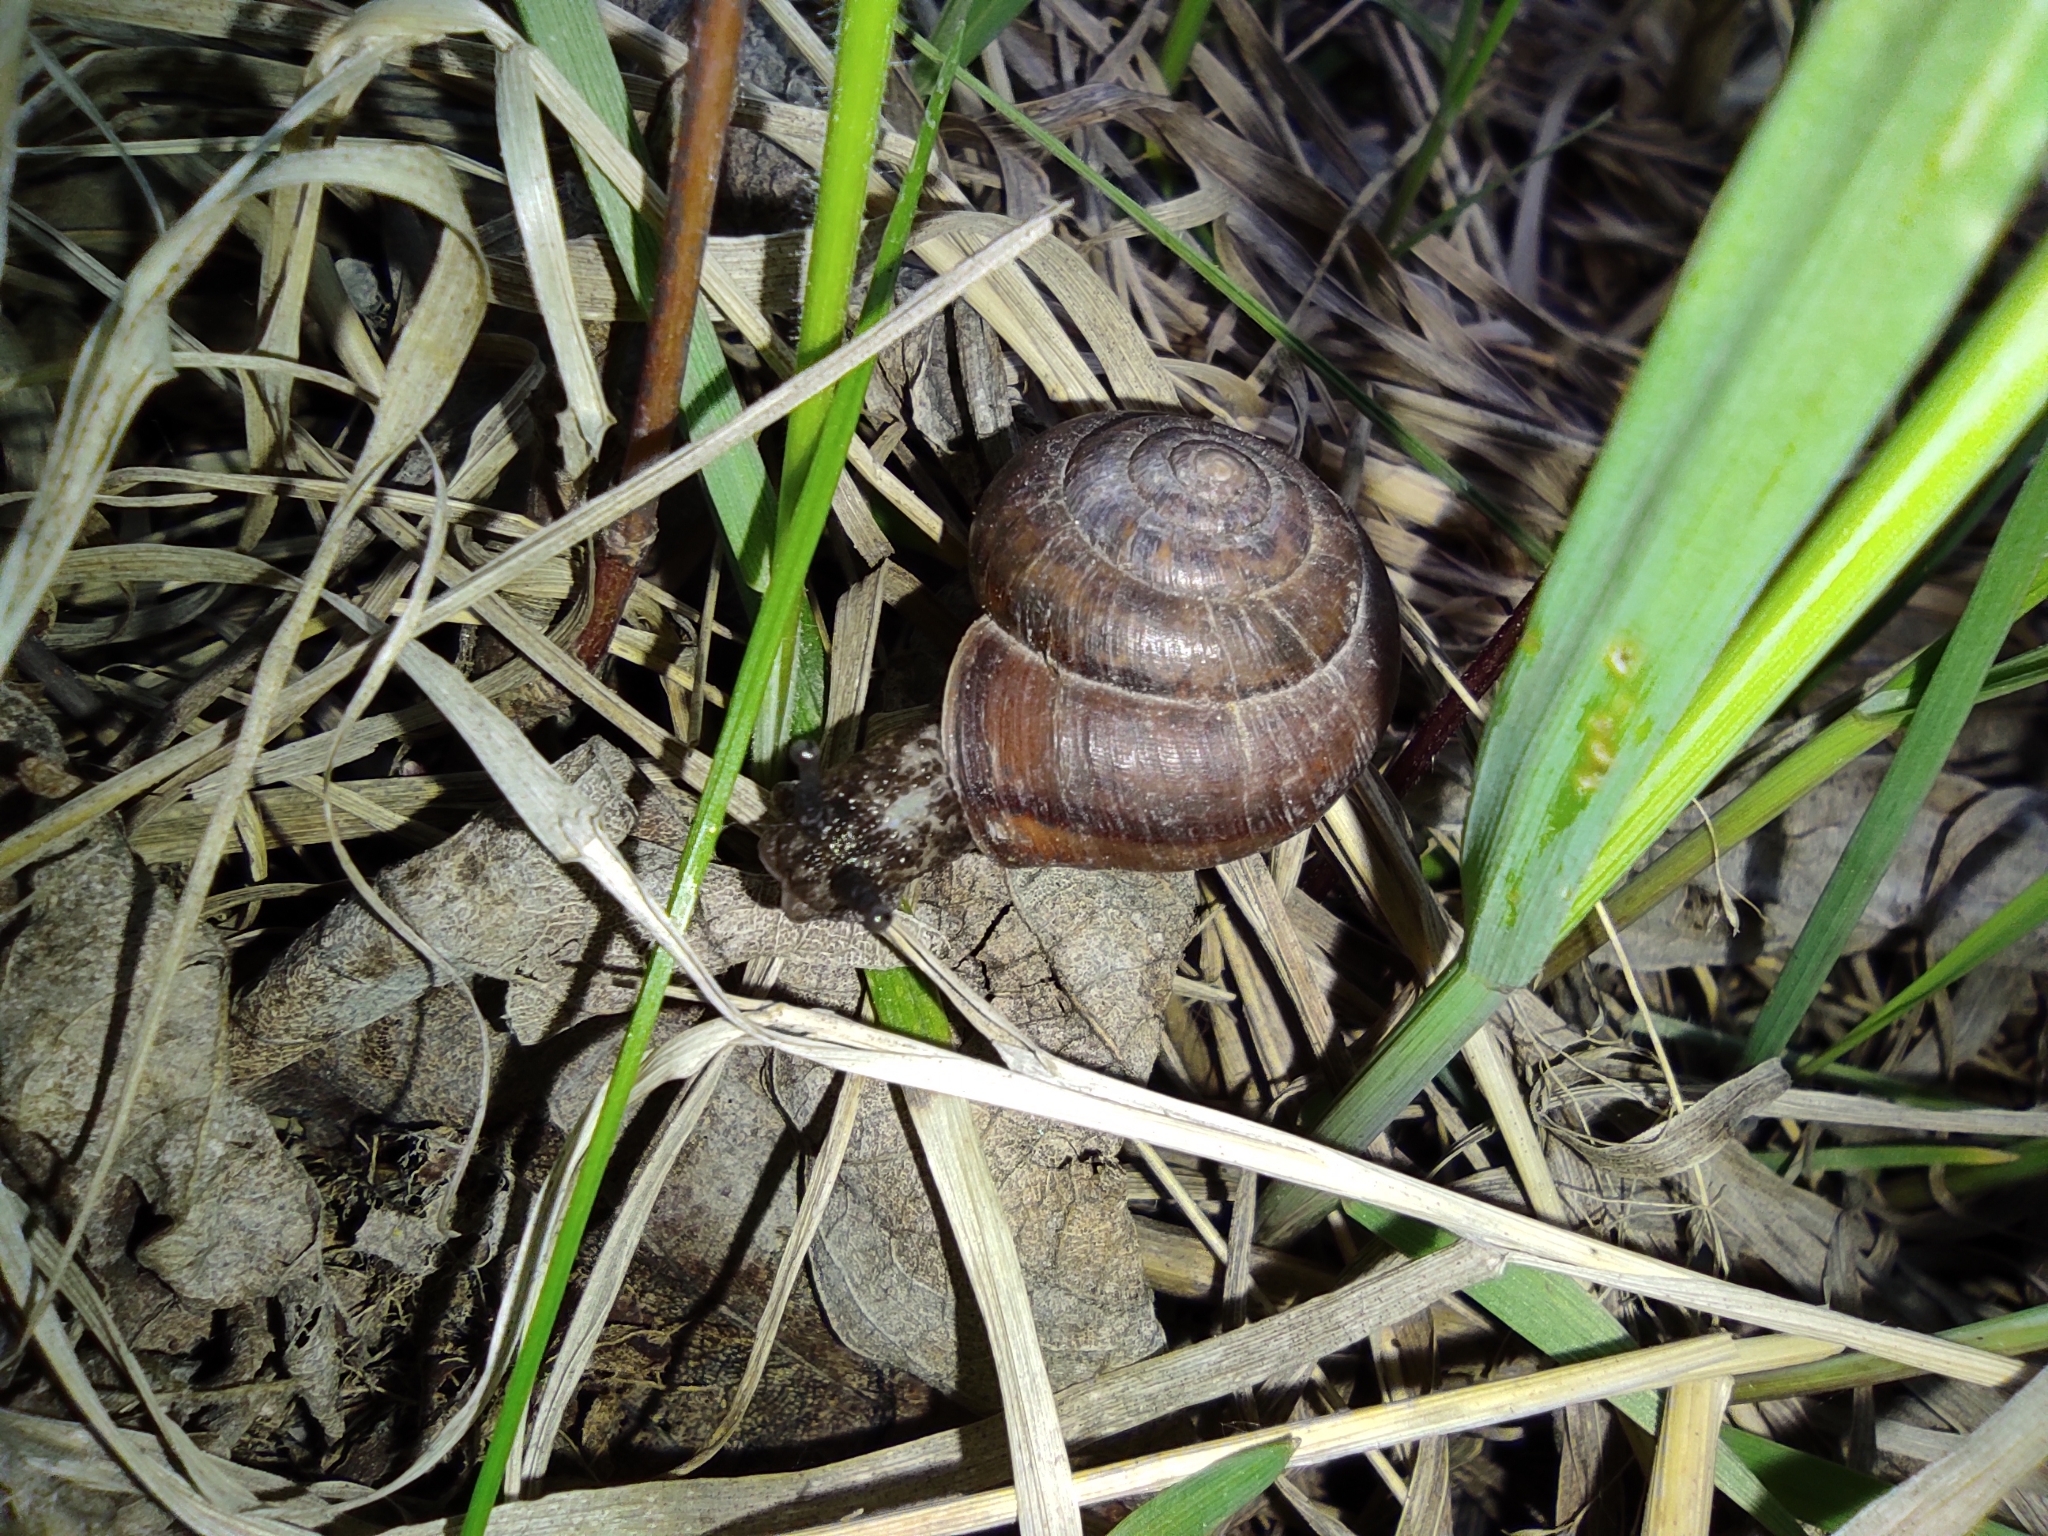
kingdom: Animalia
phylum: Mollusca
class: Gastropoda
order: Stylommatophora
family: Helicidae
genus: Helix
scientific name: Helix pomatia
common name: Roman snail
